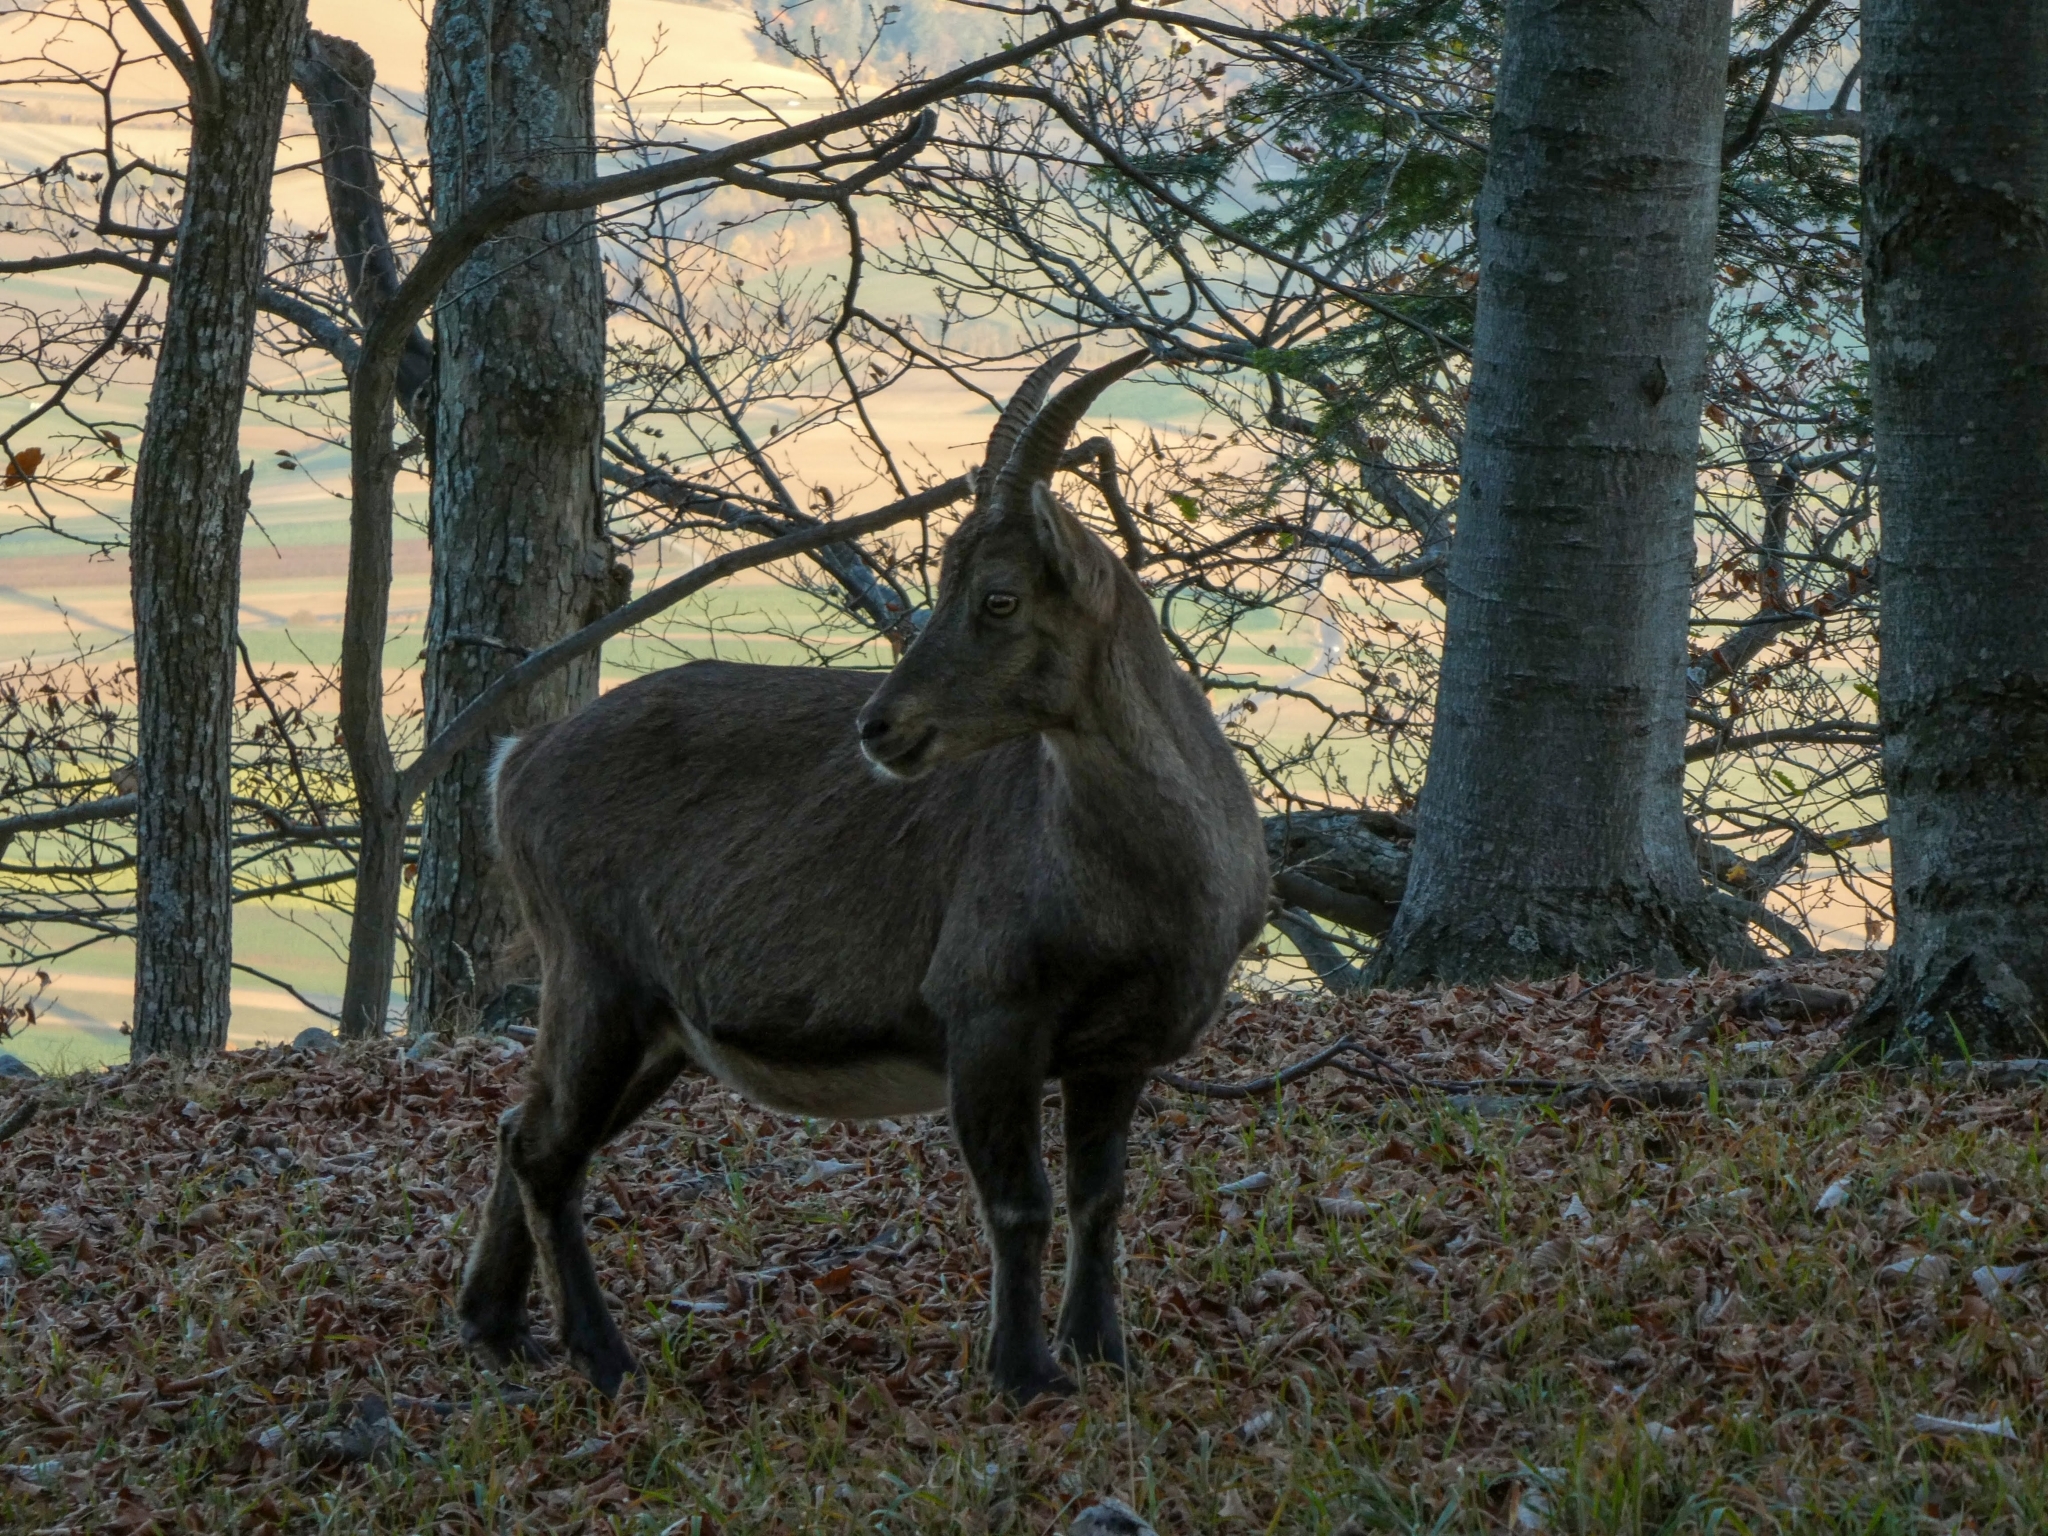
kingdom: Animalia
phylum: Chordata
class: Mammalia
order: Artiodactyla
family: Bovidae
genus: Capra
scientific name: Capra ibex
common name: Alpine ibex
